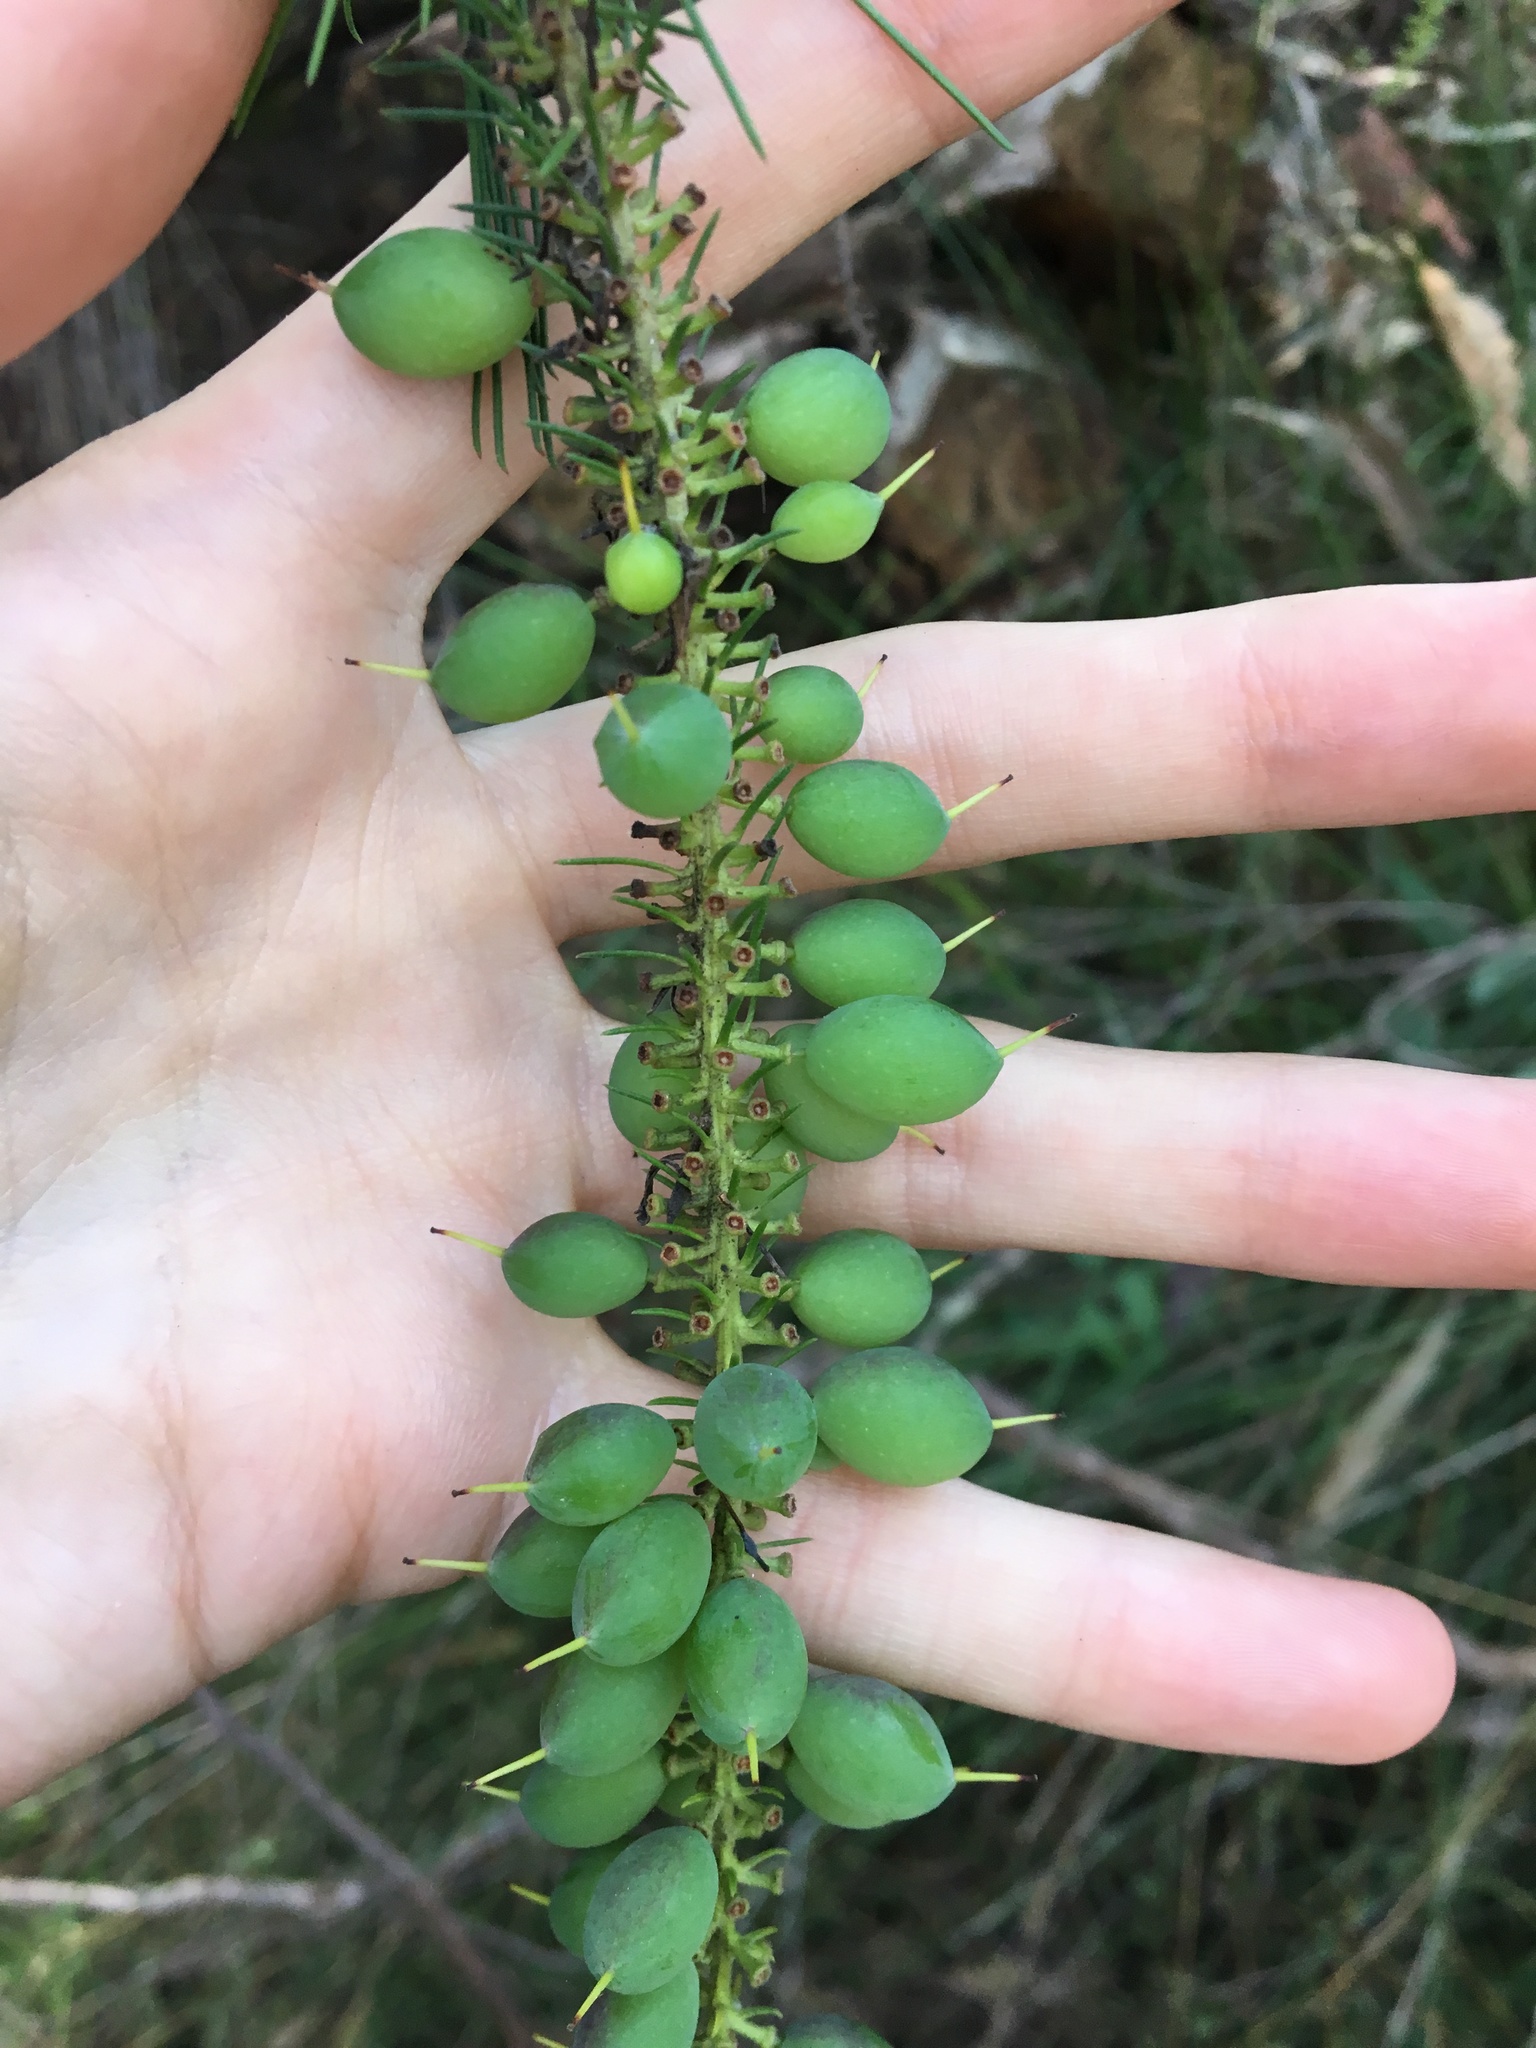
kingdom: Plantae
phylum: Tracheophyta
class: Magnoliopsida
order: Proteales
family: Proteaceae
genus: Persoonia
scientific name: Persoonia pinifolia
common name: Pine-leaf geebung
